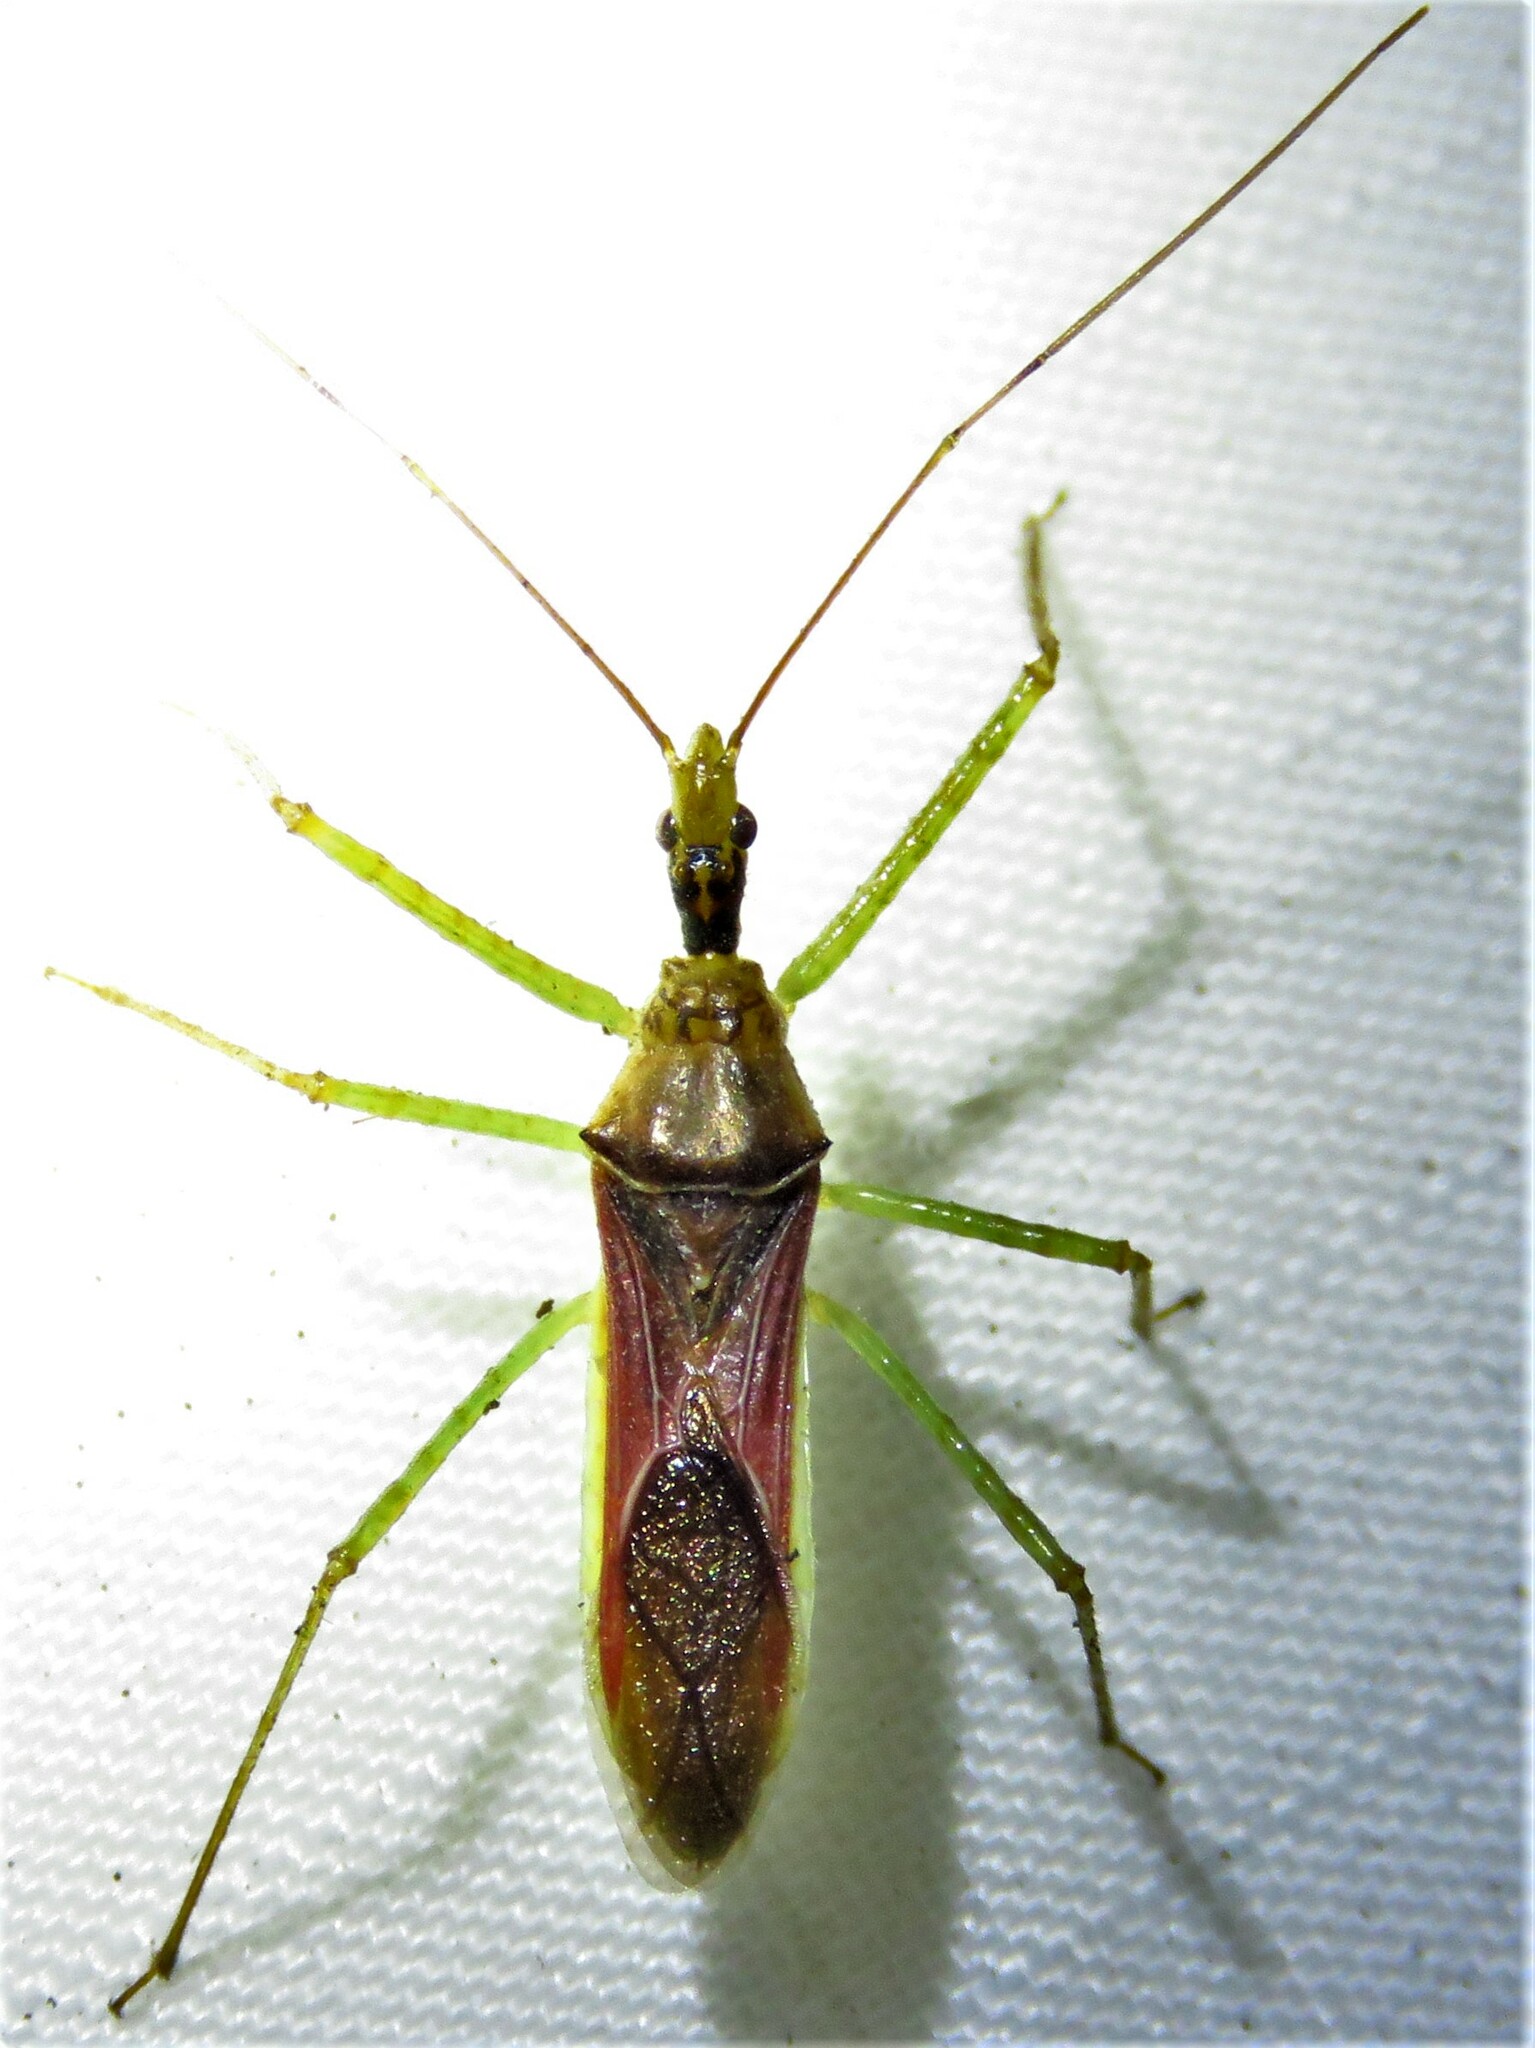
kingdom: Animalia
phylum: Arthropoda
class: Insecta
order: Hemiptera
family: Reduviidae
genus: Zelus
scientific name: Zelus renardii
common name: Assassin bug
